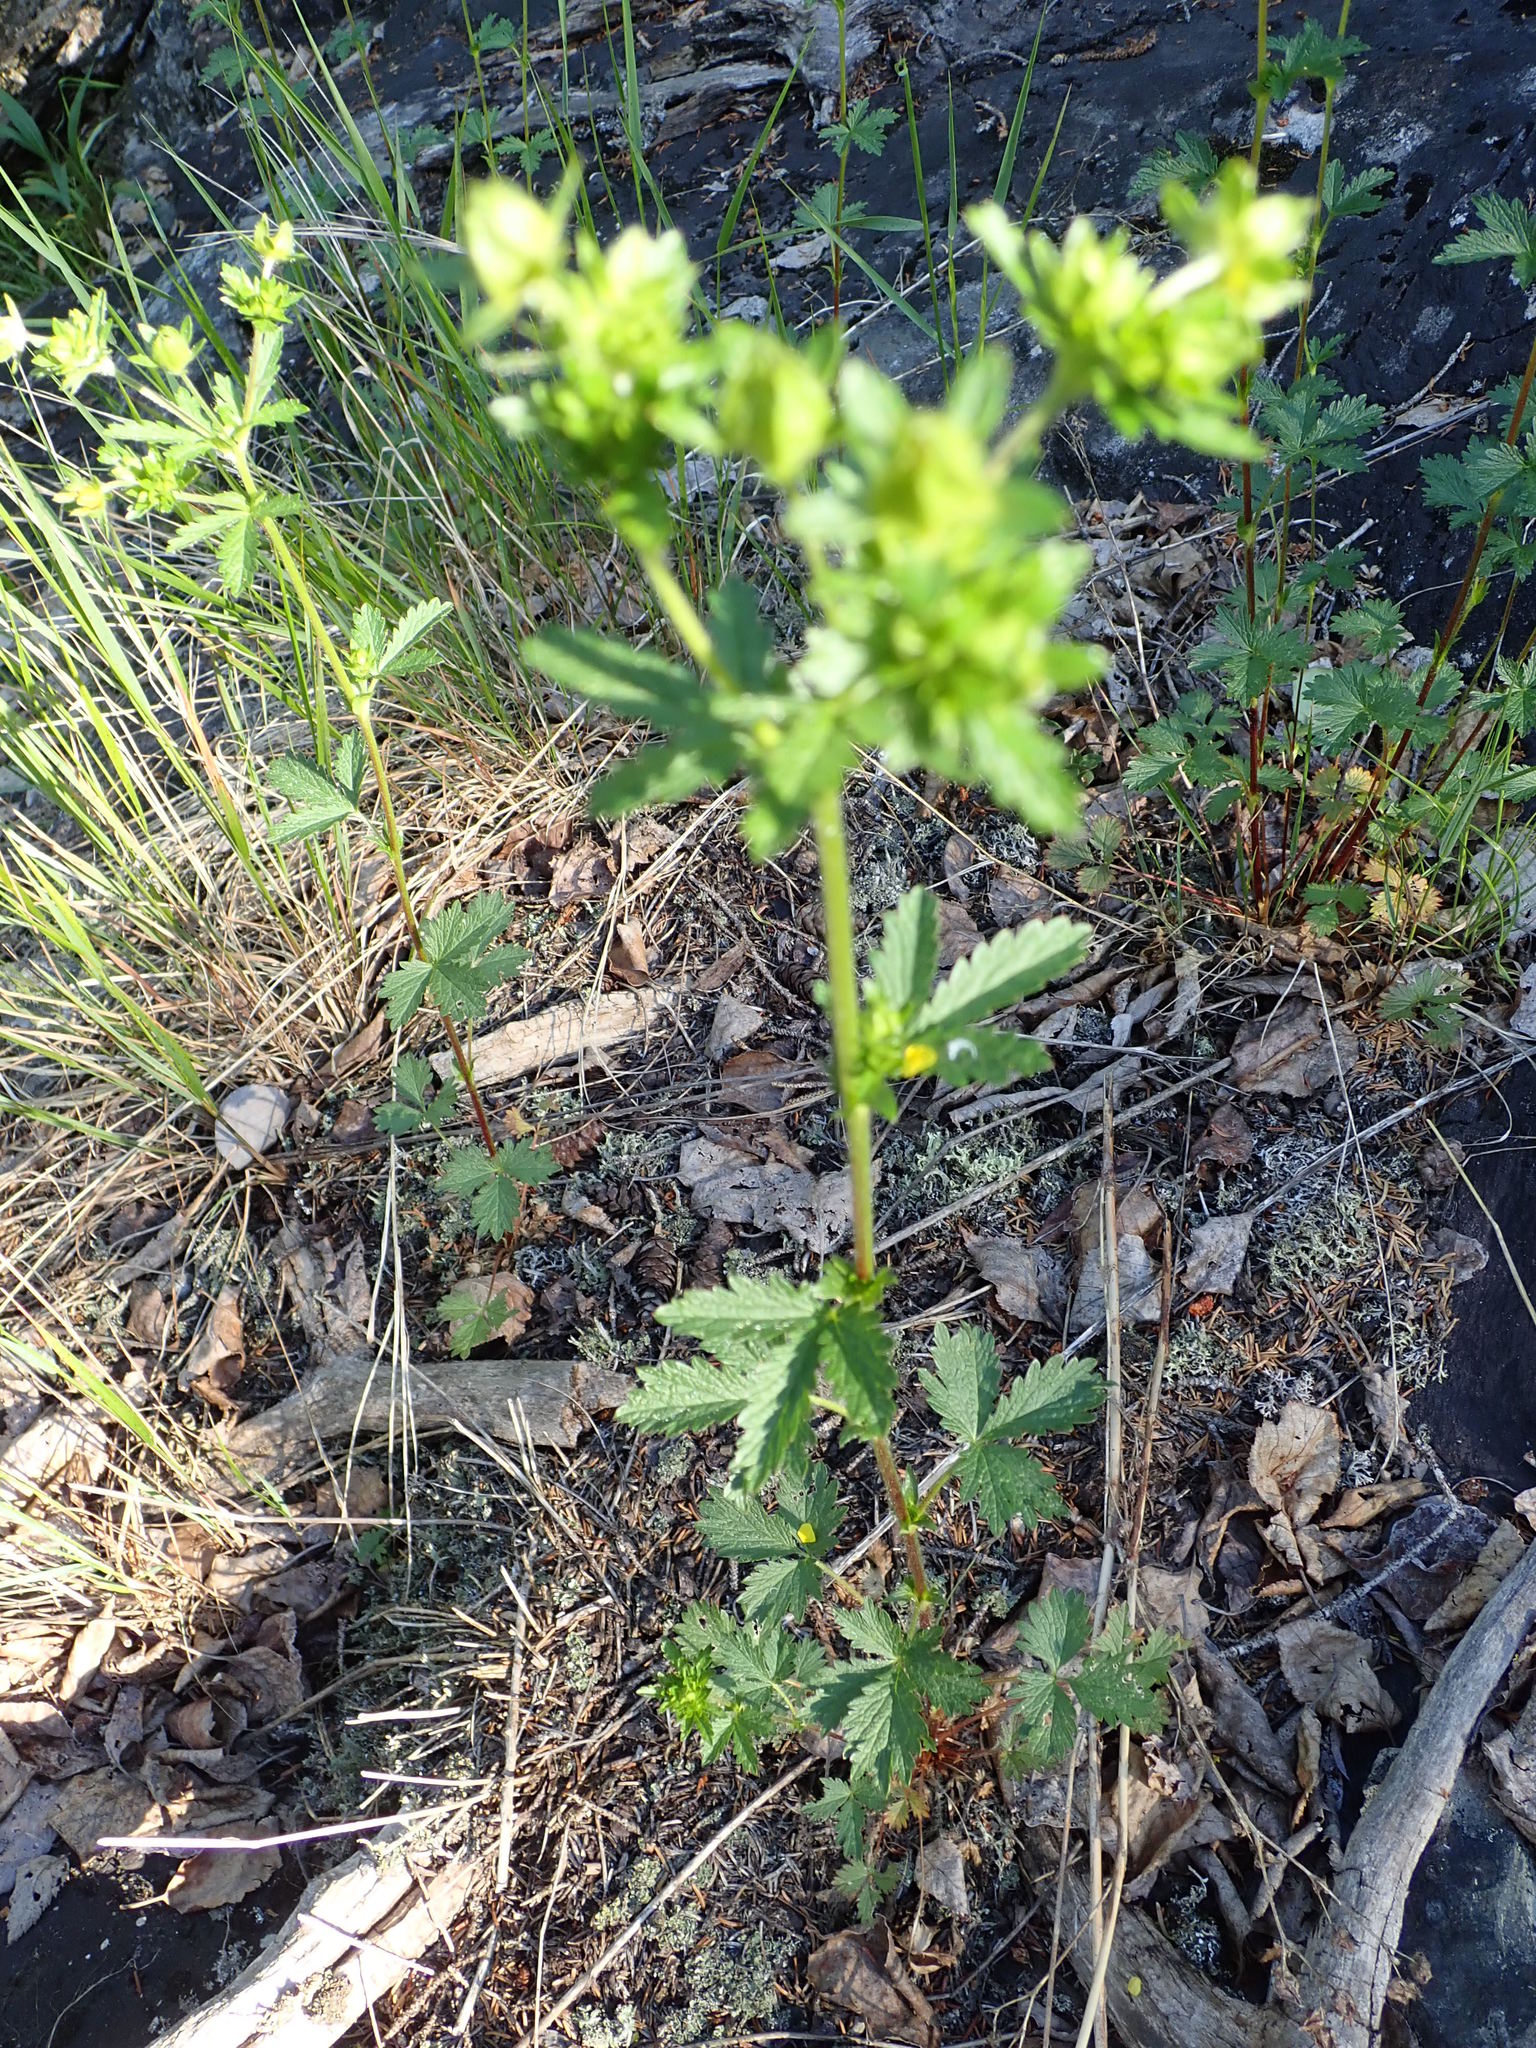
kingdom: Plantae
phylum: Tracheophyta
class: Magnoliopsida
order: Rosales
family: Rosaceae
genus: Potentilla
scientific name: Potentilla norvegica
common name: Ternate-leaved cinquefoil
